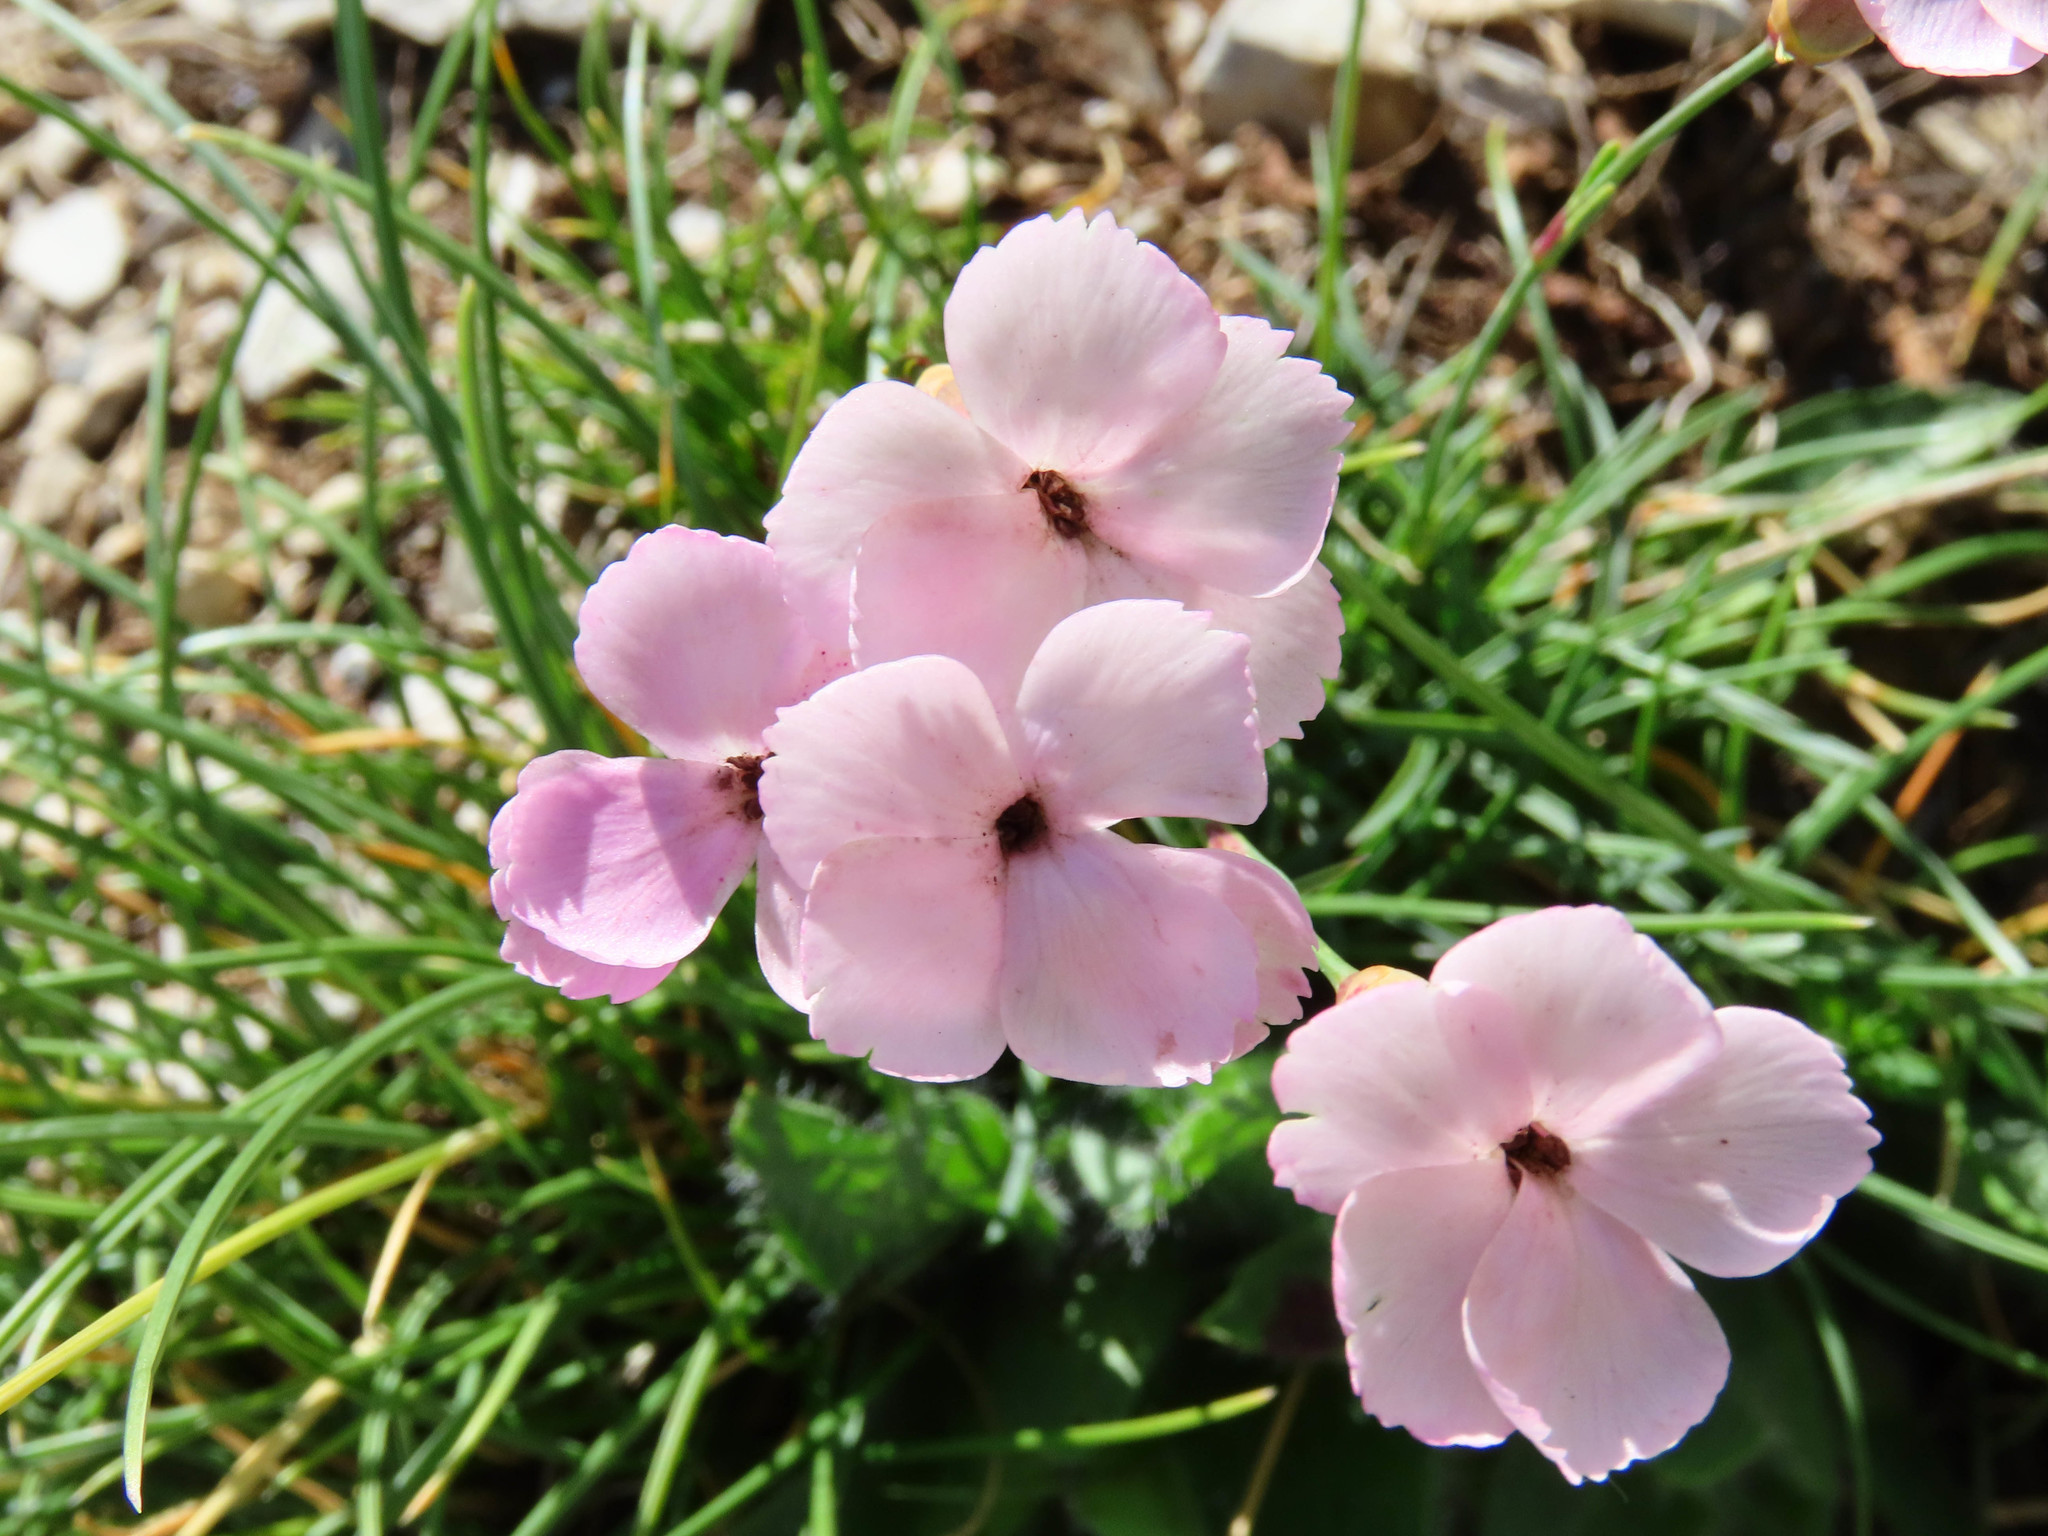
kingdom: Plantae
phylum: Tracheophyta
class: Magnoliopsida
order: Caryophyllales
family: Caryophyllaceae
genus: Dianthus
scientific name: Dianthus brachycalyx
